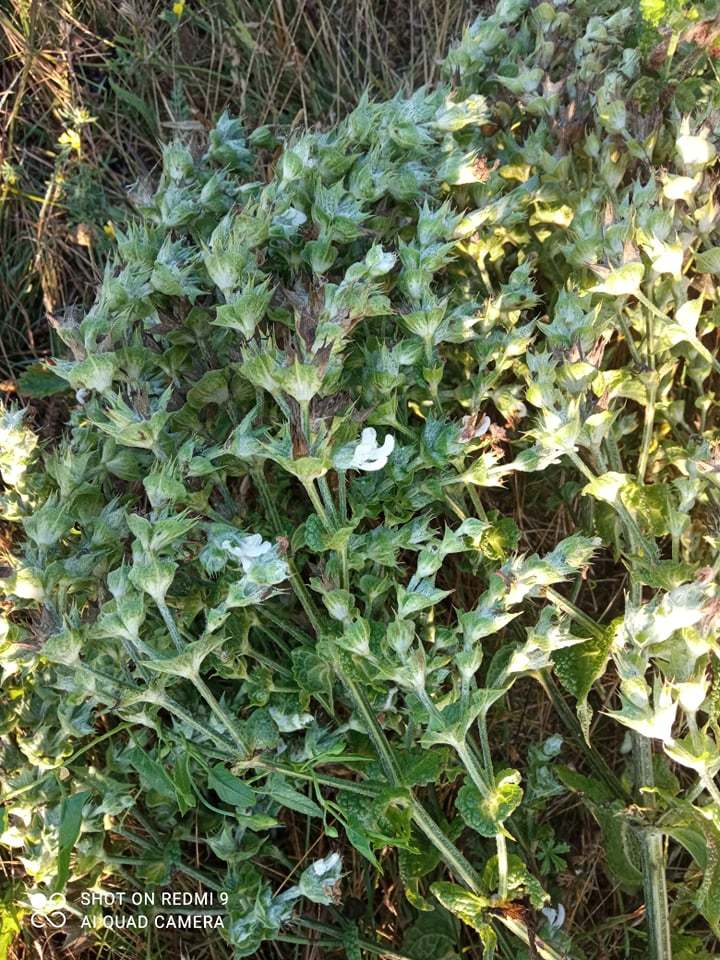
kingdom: Plantae
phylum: Tracheophyta
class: Magnoliopsida
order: Lamiales
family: Lamiaceae
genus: Salvia
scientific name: Salvia aethiopis
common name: Mediterranean sage
